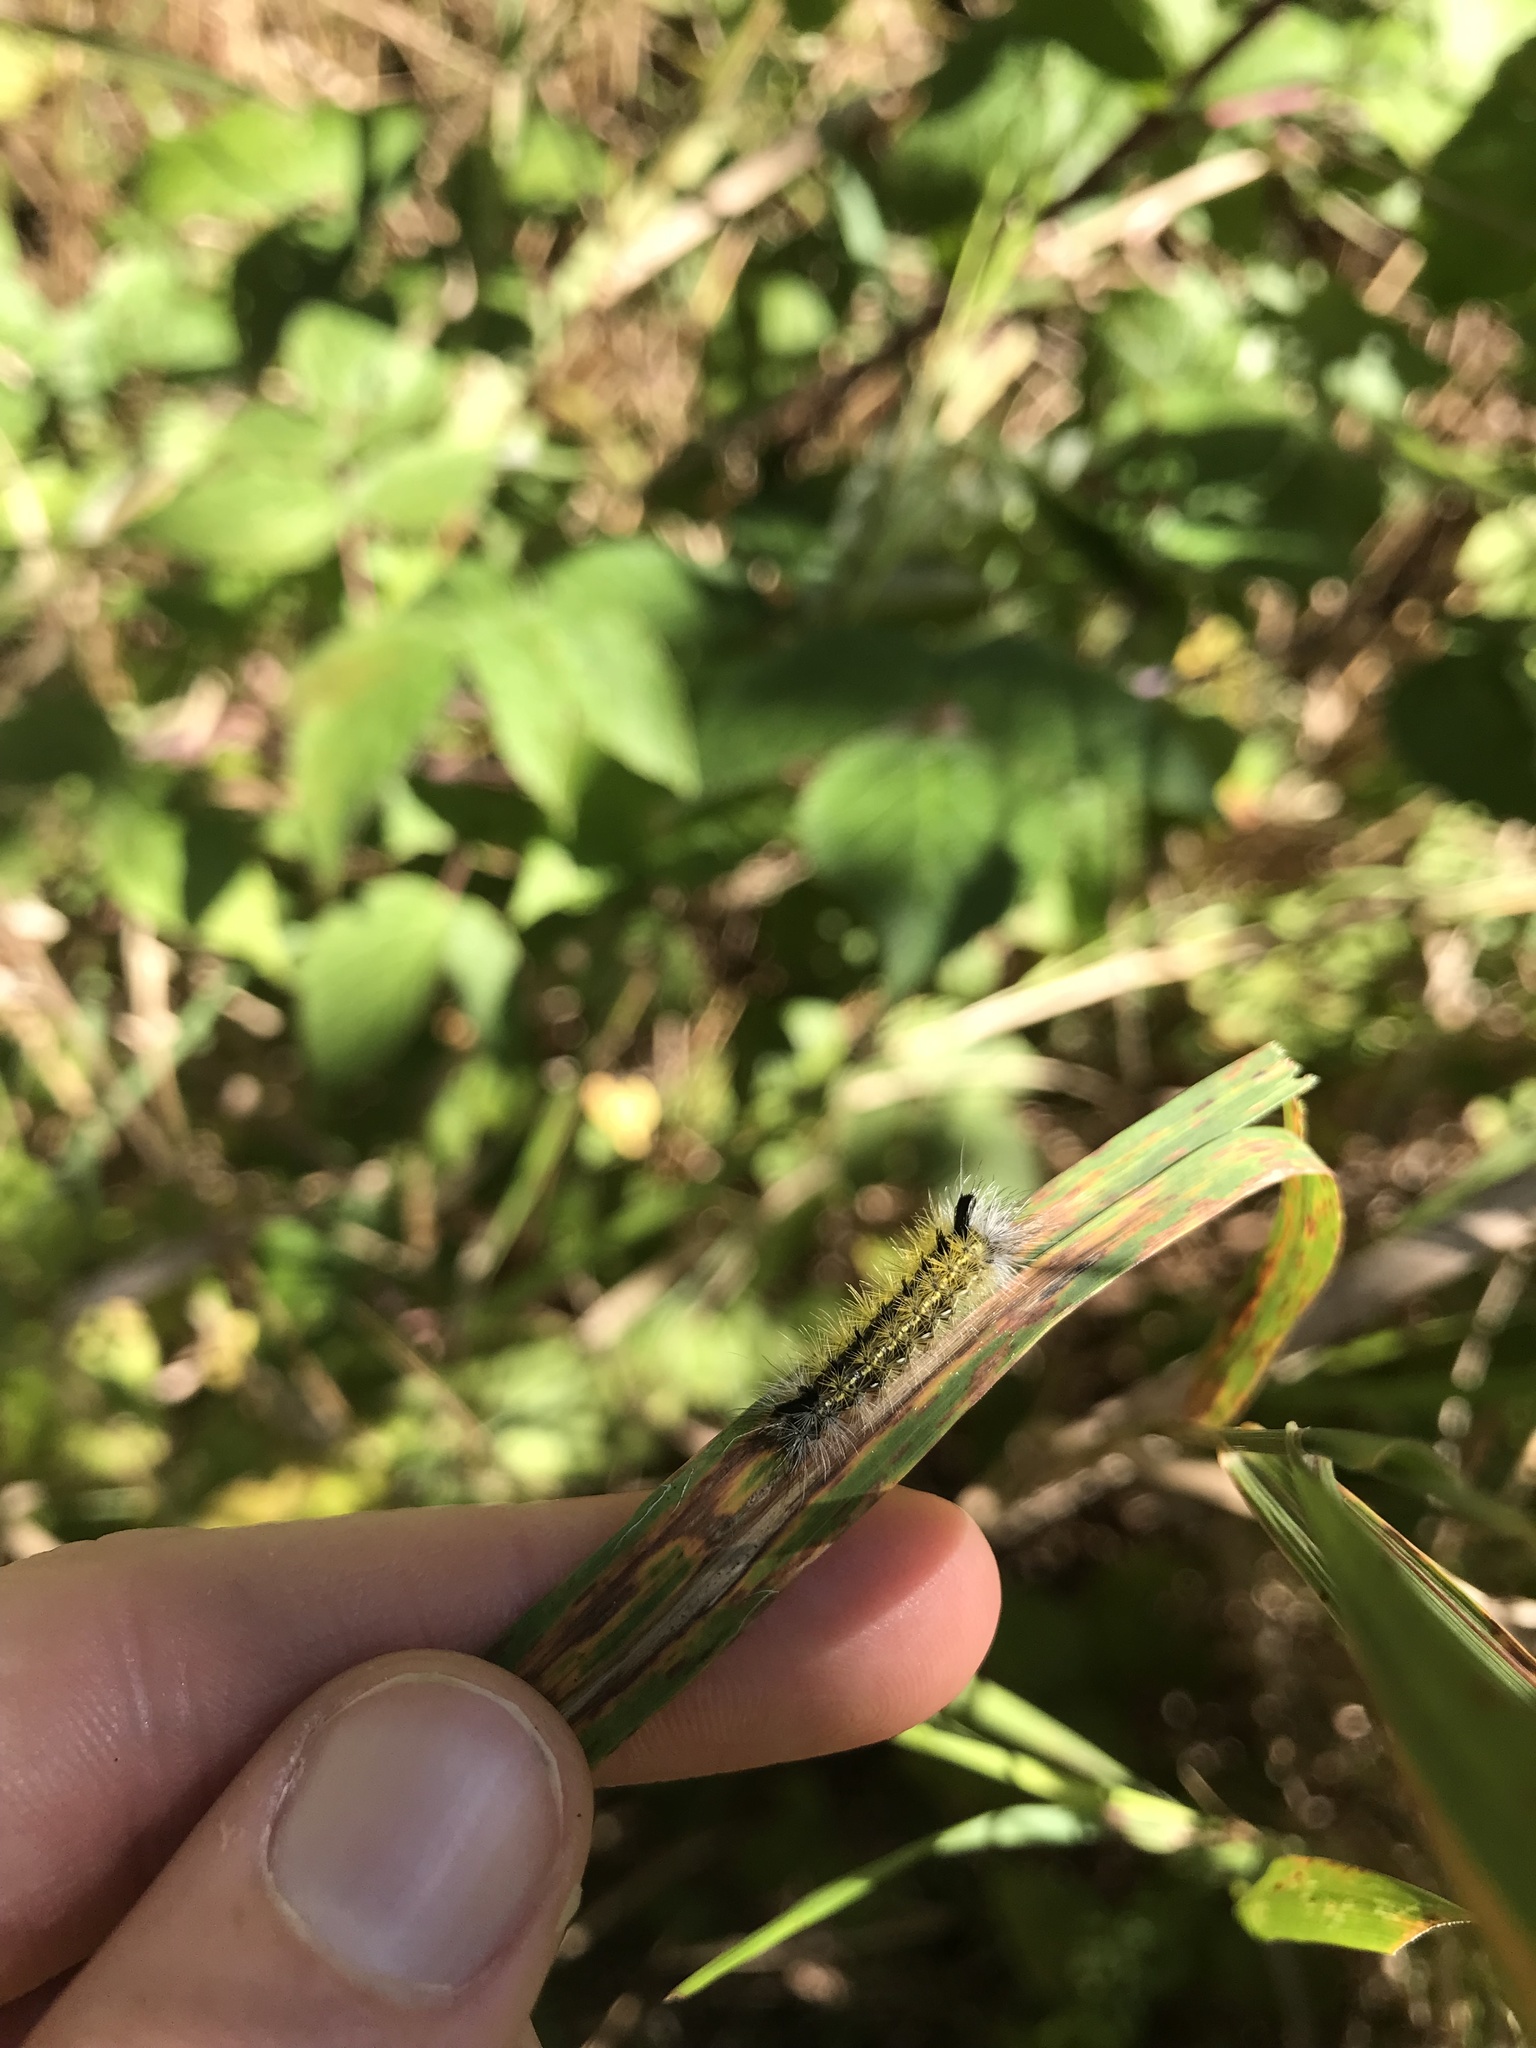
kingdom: Animalia
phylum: Arthropoda
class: Insecta
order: Lepidoptera
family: Erebidae
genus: Ctenucha
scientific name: Ctenucha virginica
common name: Virginia ctenucha moth
